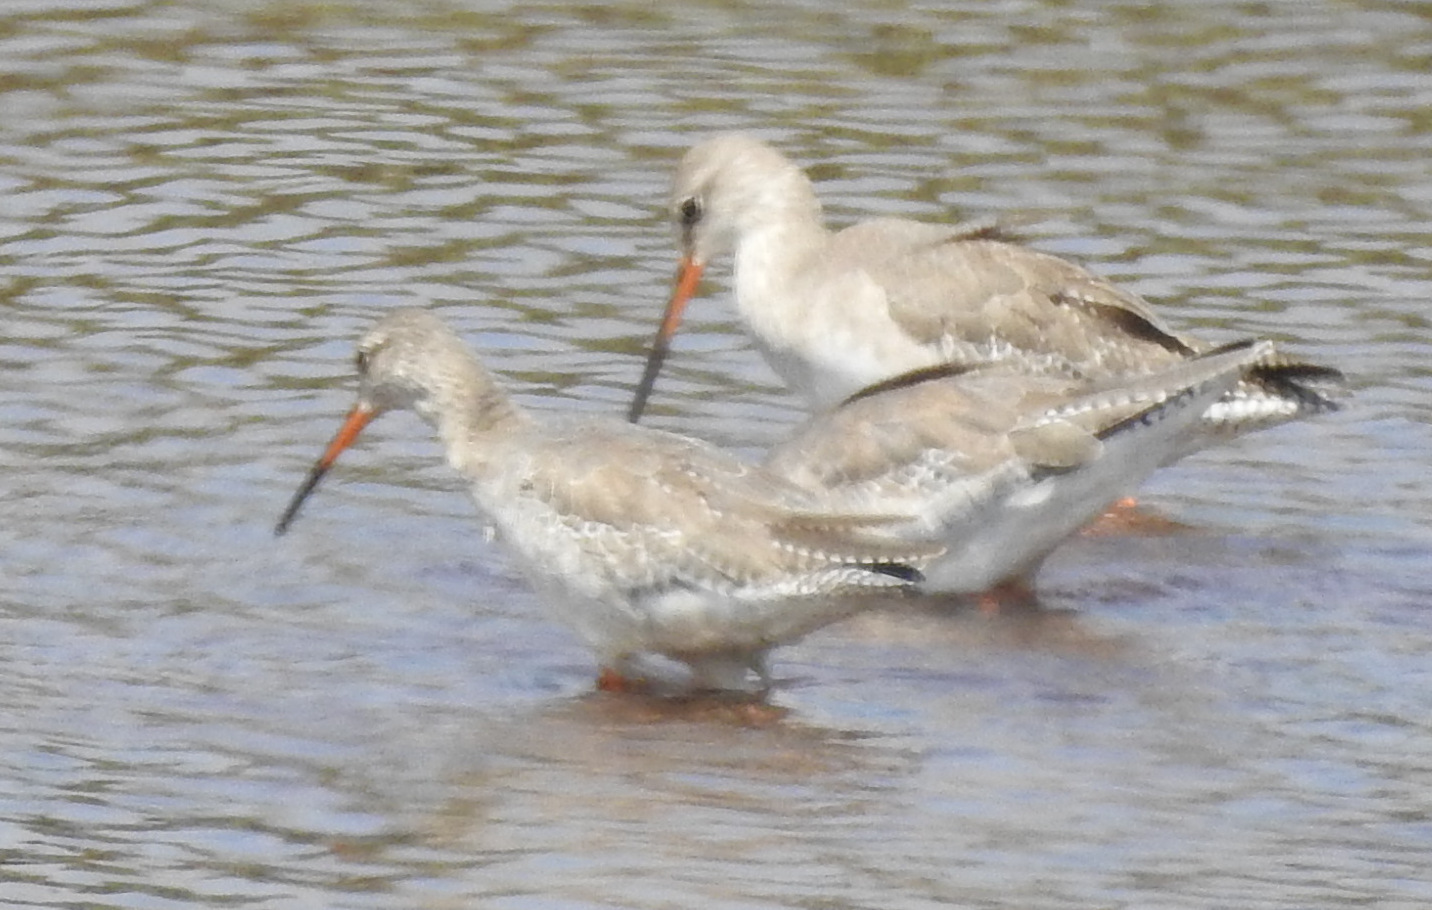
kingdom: Animalia
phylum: Chordata
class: Aves
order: Charadriiformes
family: Scolopacidae
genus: Tringa
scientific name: Tringa erythropus
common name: Spotted redshank
